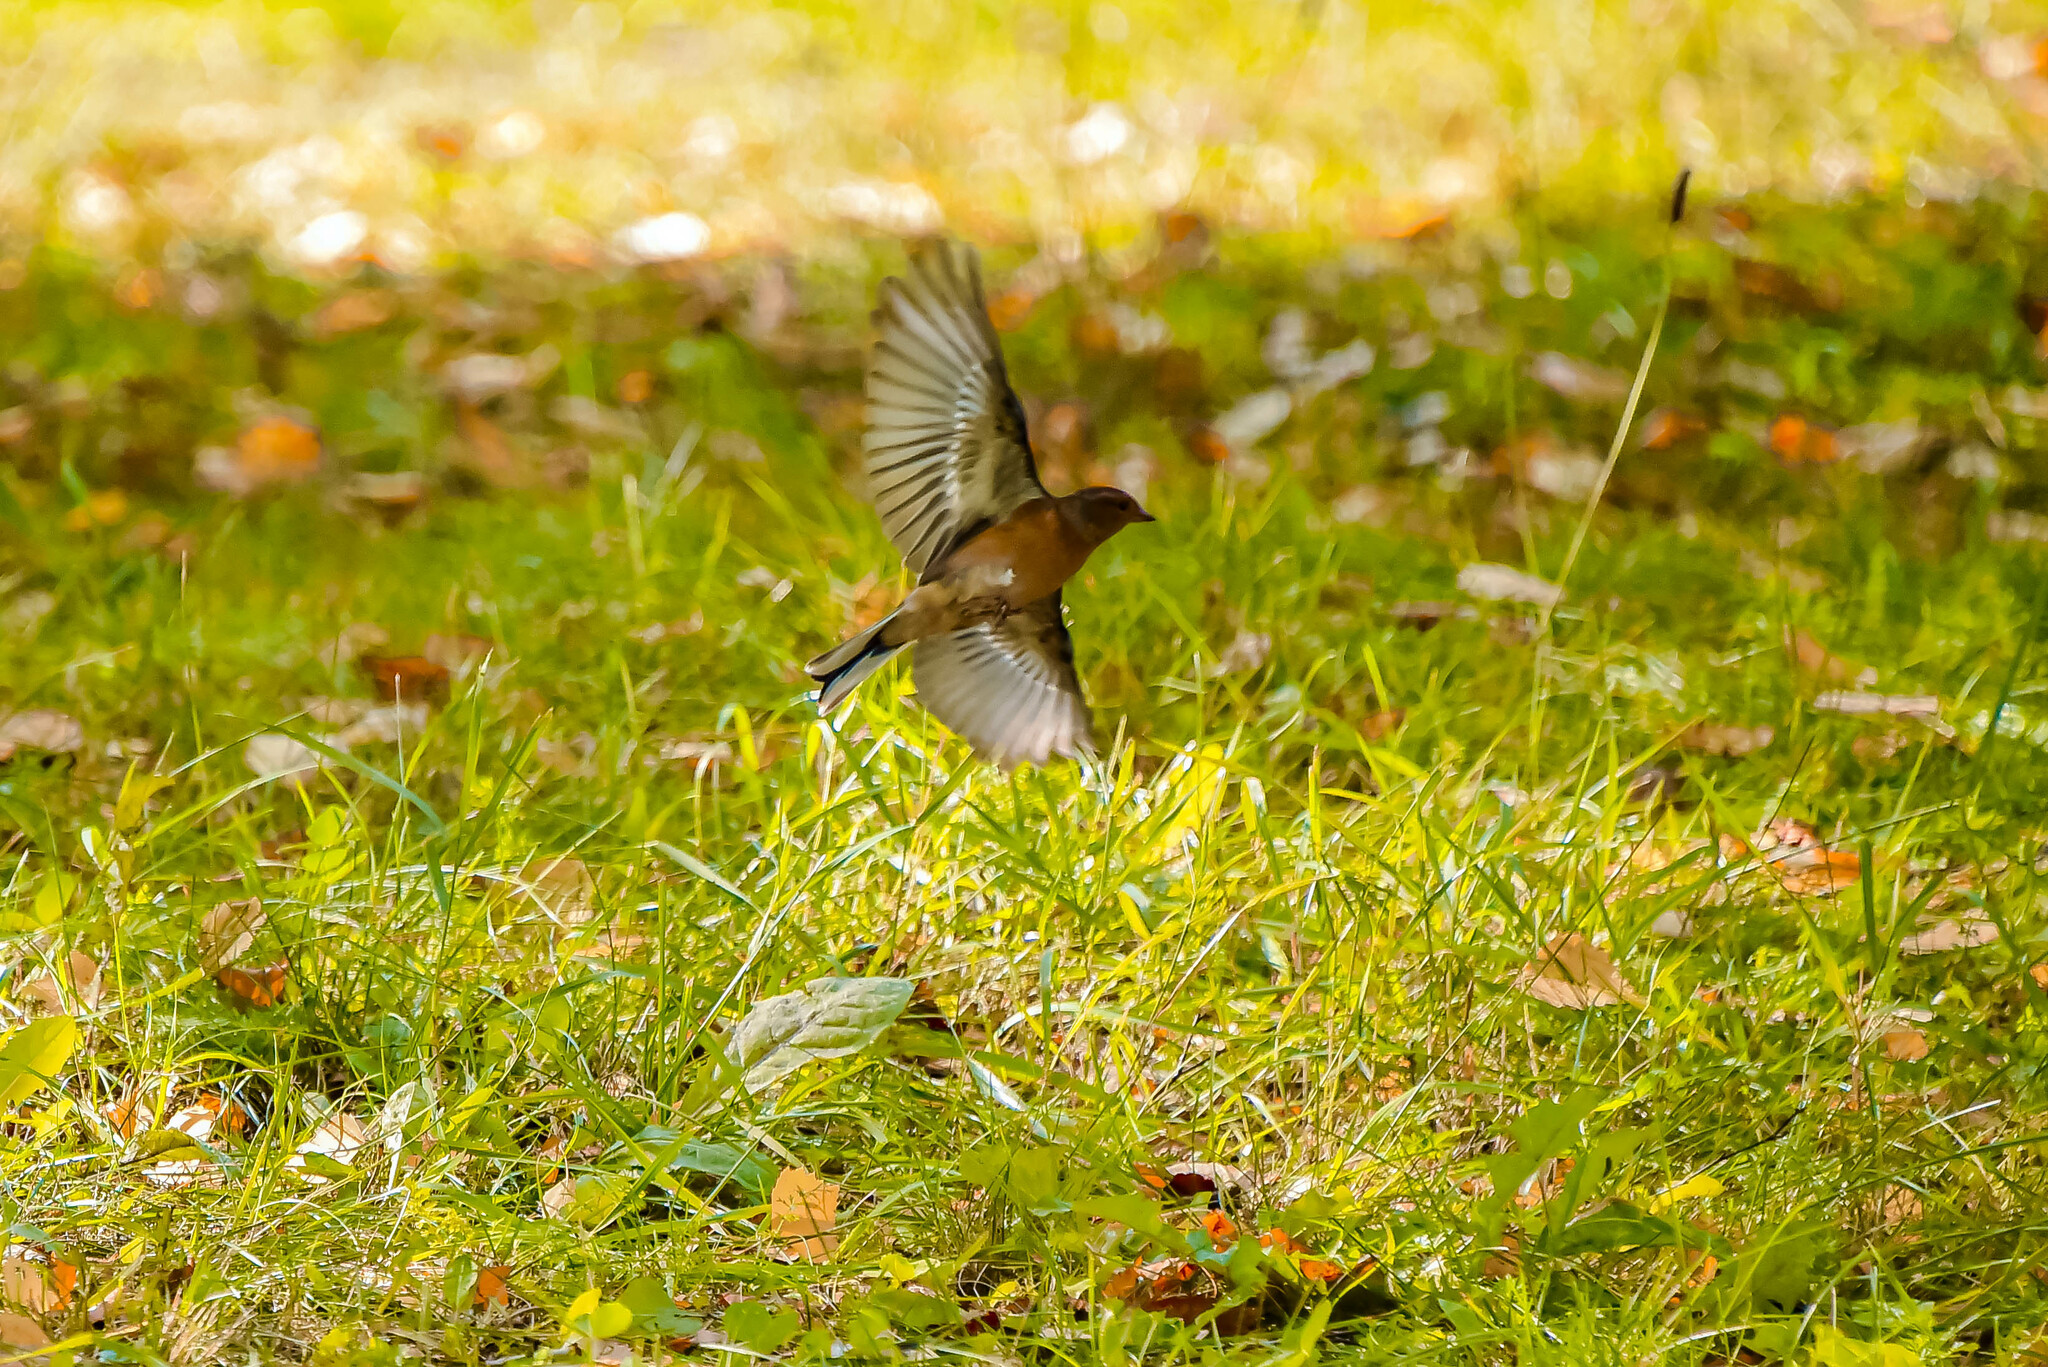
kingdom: Animalia
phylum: Chordata
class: Aves
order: Passeriformes
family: Fringillidae
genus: Fringilla
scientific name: Fringilla coelebs
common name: Common chaffinch
